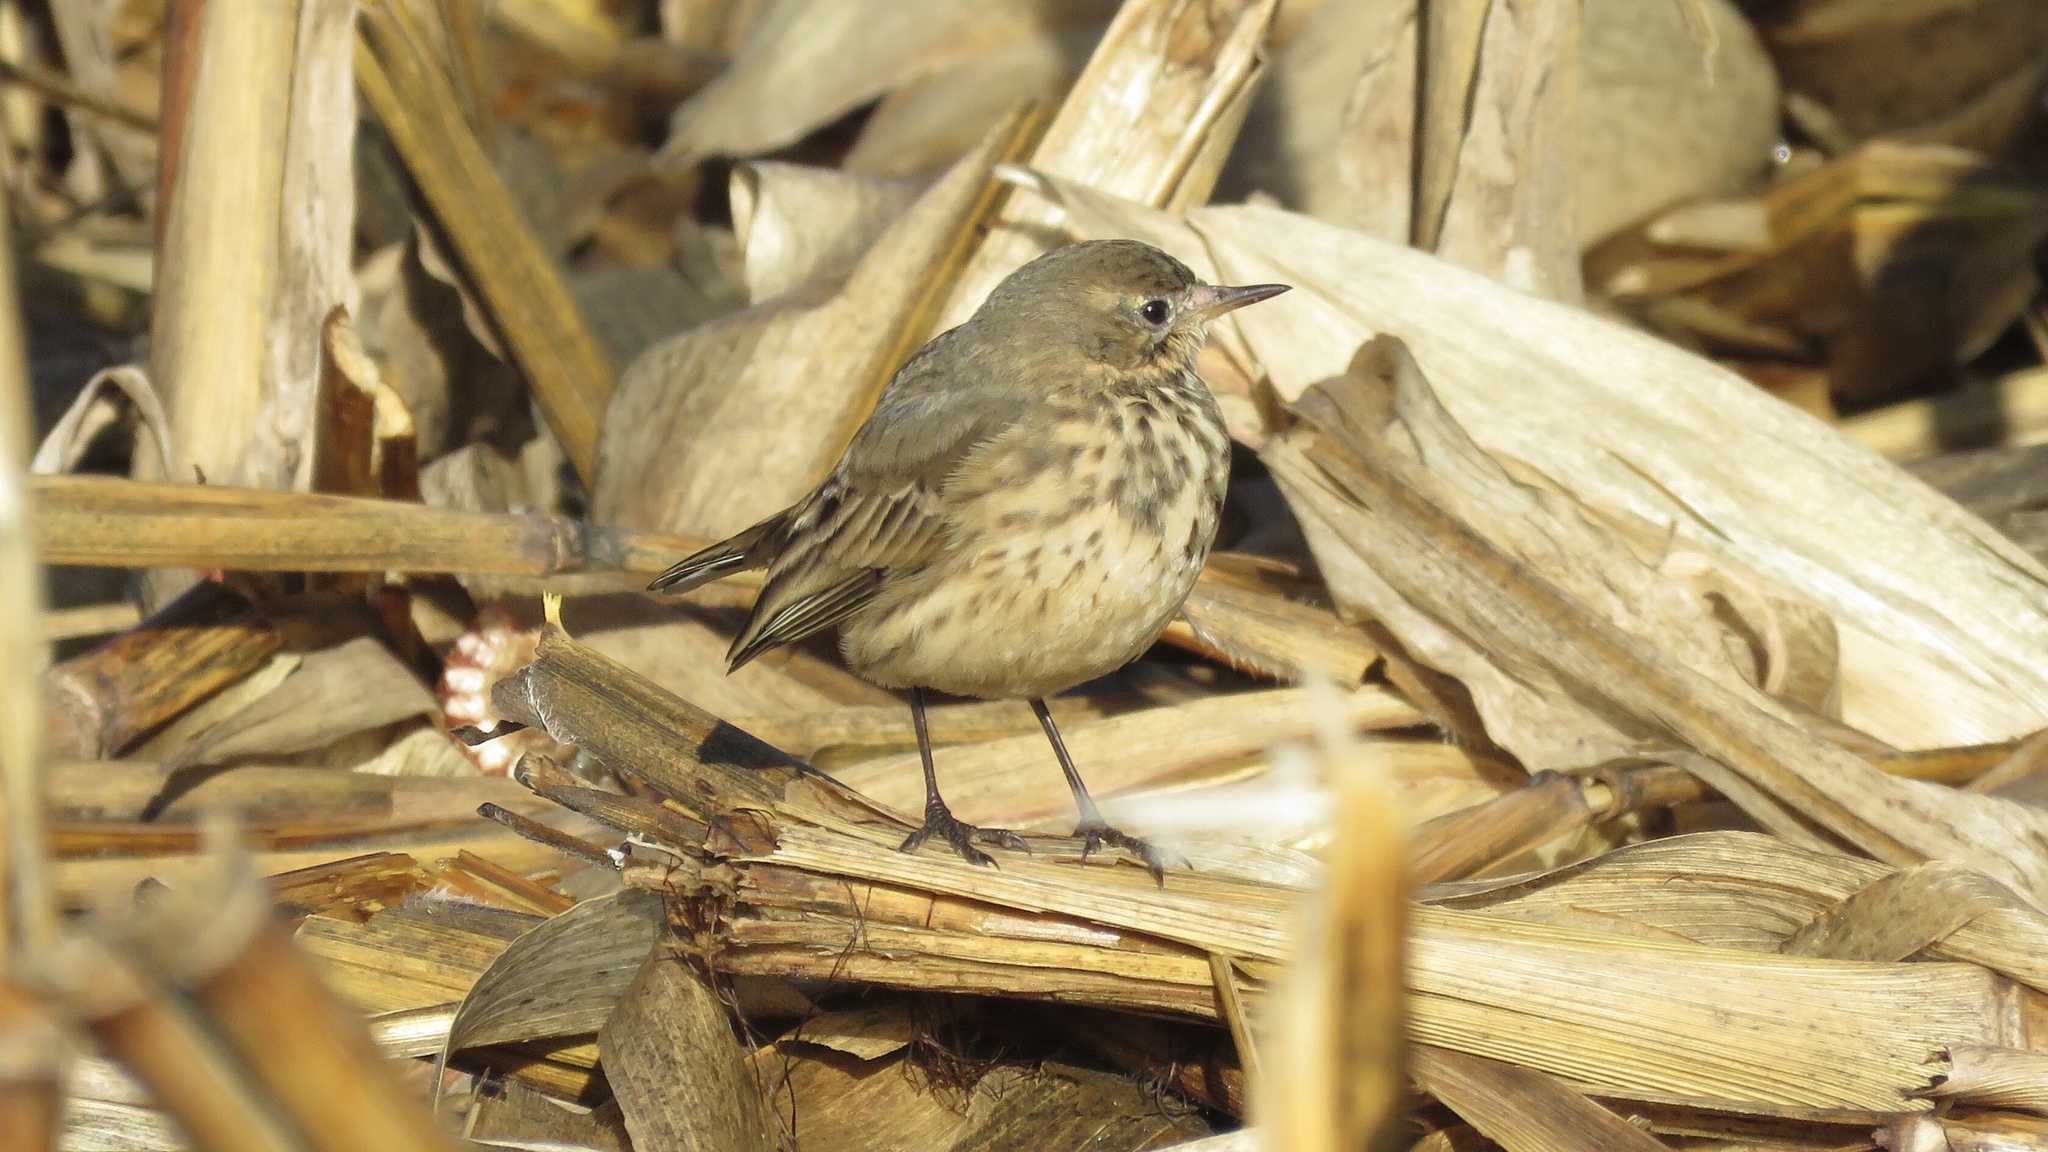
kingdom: Animalia
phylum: Chordata
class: Aves
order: Passeriformes
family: Motacillidae
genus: Anthus
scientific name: Anthus rubescens
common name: Buff-bellied pipit
